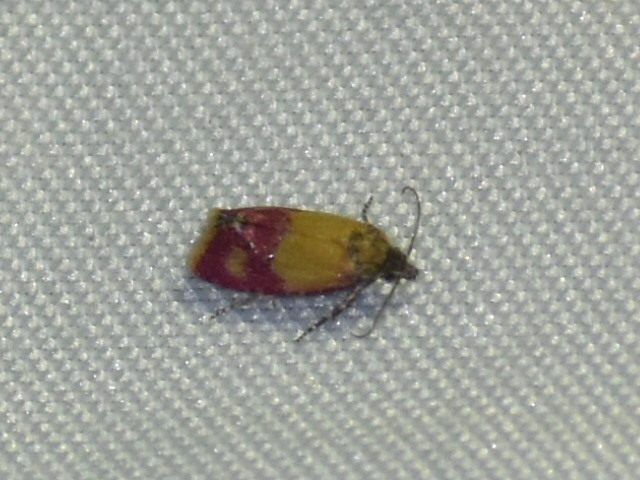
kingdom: Animalia
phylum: Arthropoda
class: Insecta
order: Lepidoptera
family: Tortricidae
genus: Conchylis
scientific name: Conchylis oenotherana
